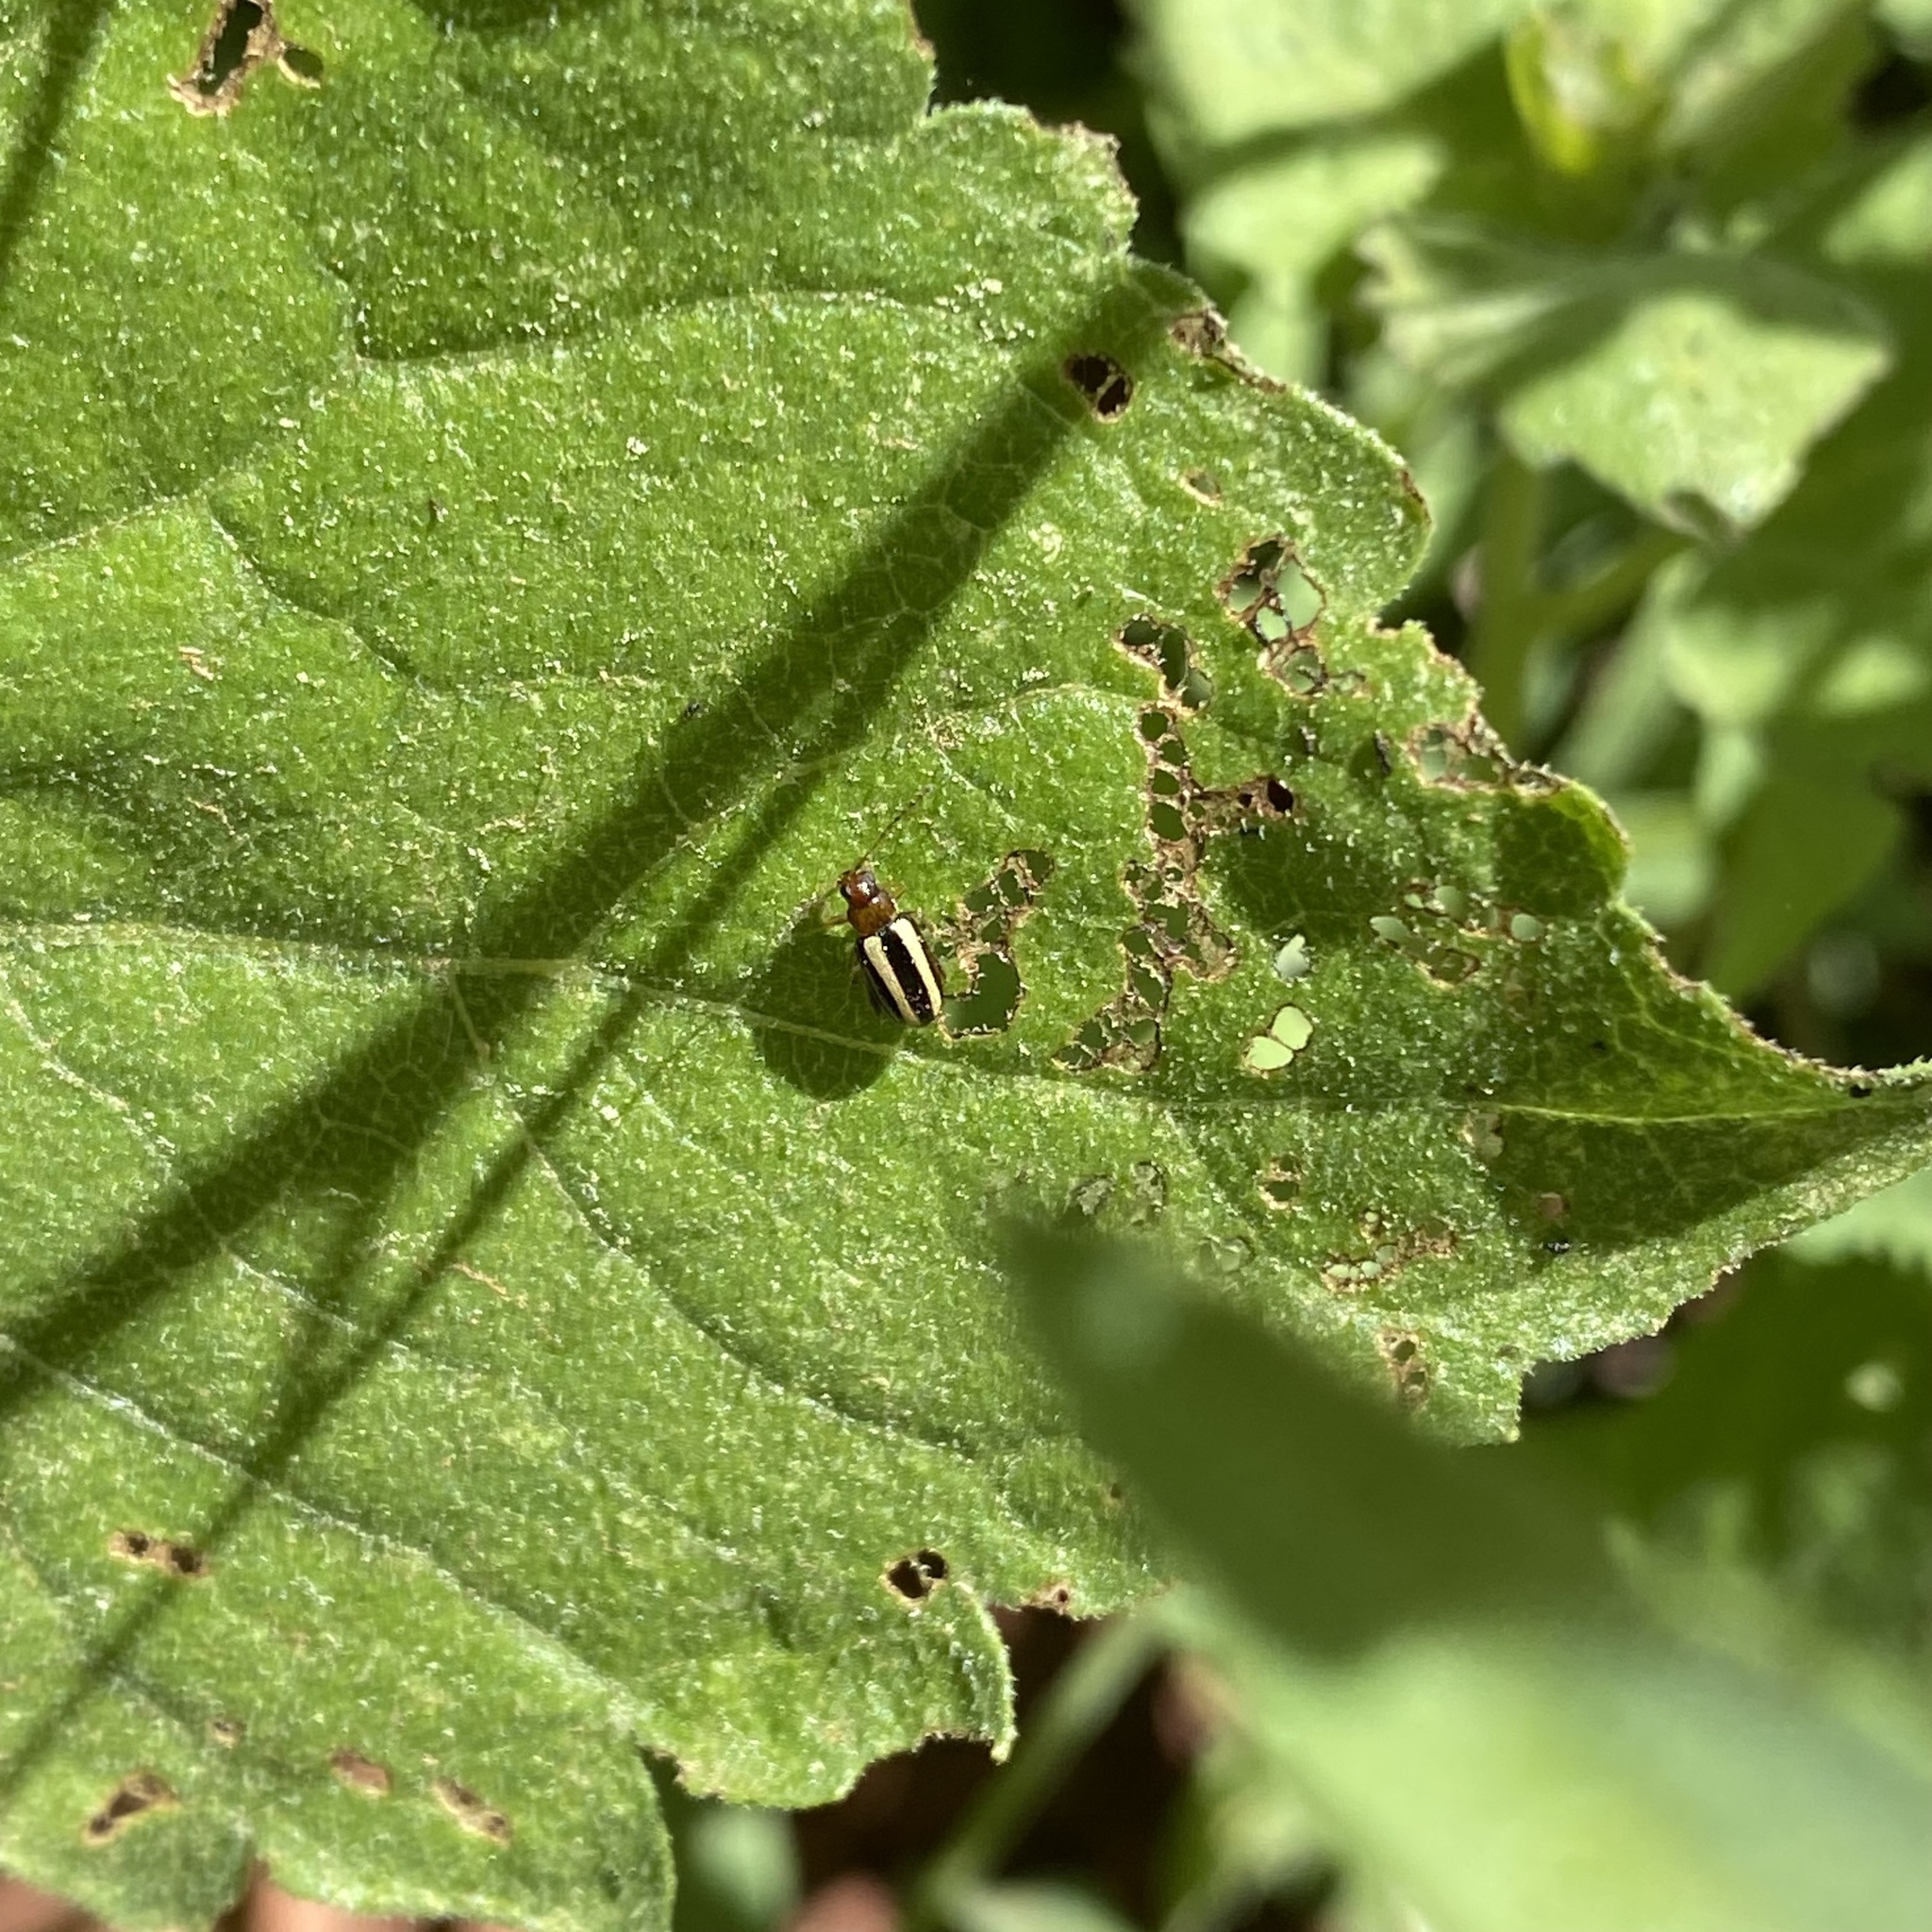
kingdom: Plantae
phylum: Tracheophyta
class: Magnoliopsida
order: Asterales
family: Asteraceae
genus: Brickellia
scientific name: Brickellia californica
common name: California brickellbush
